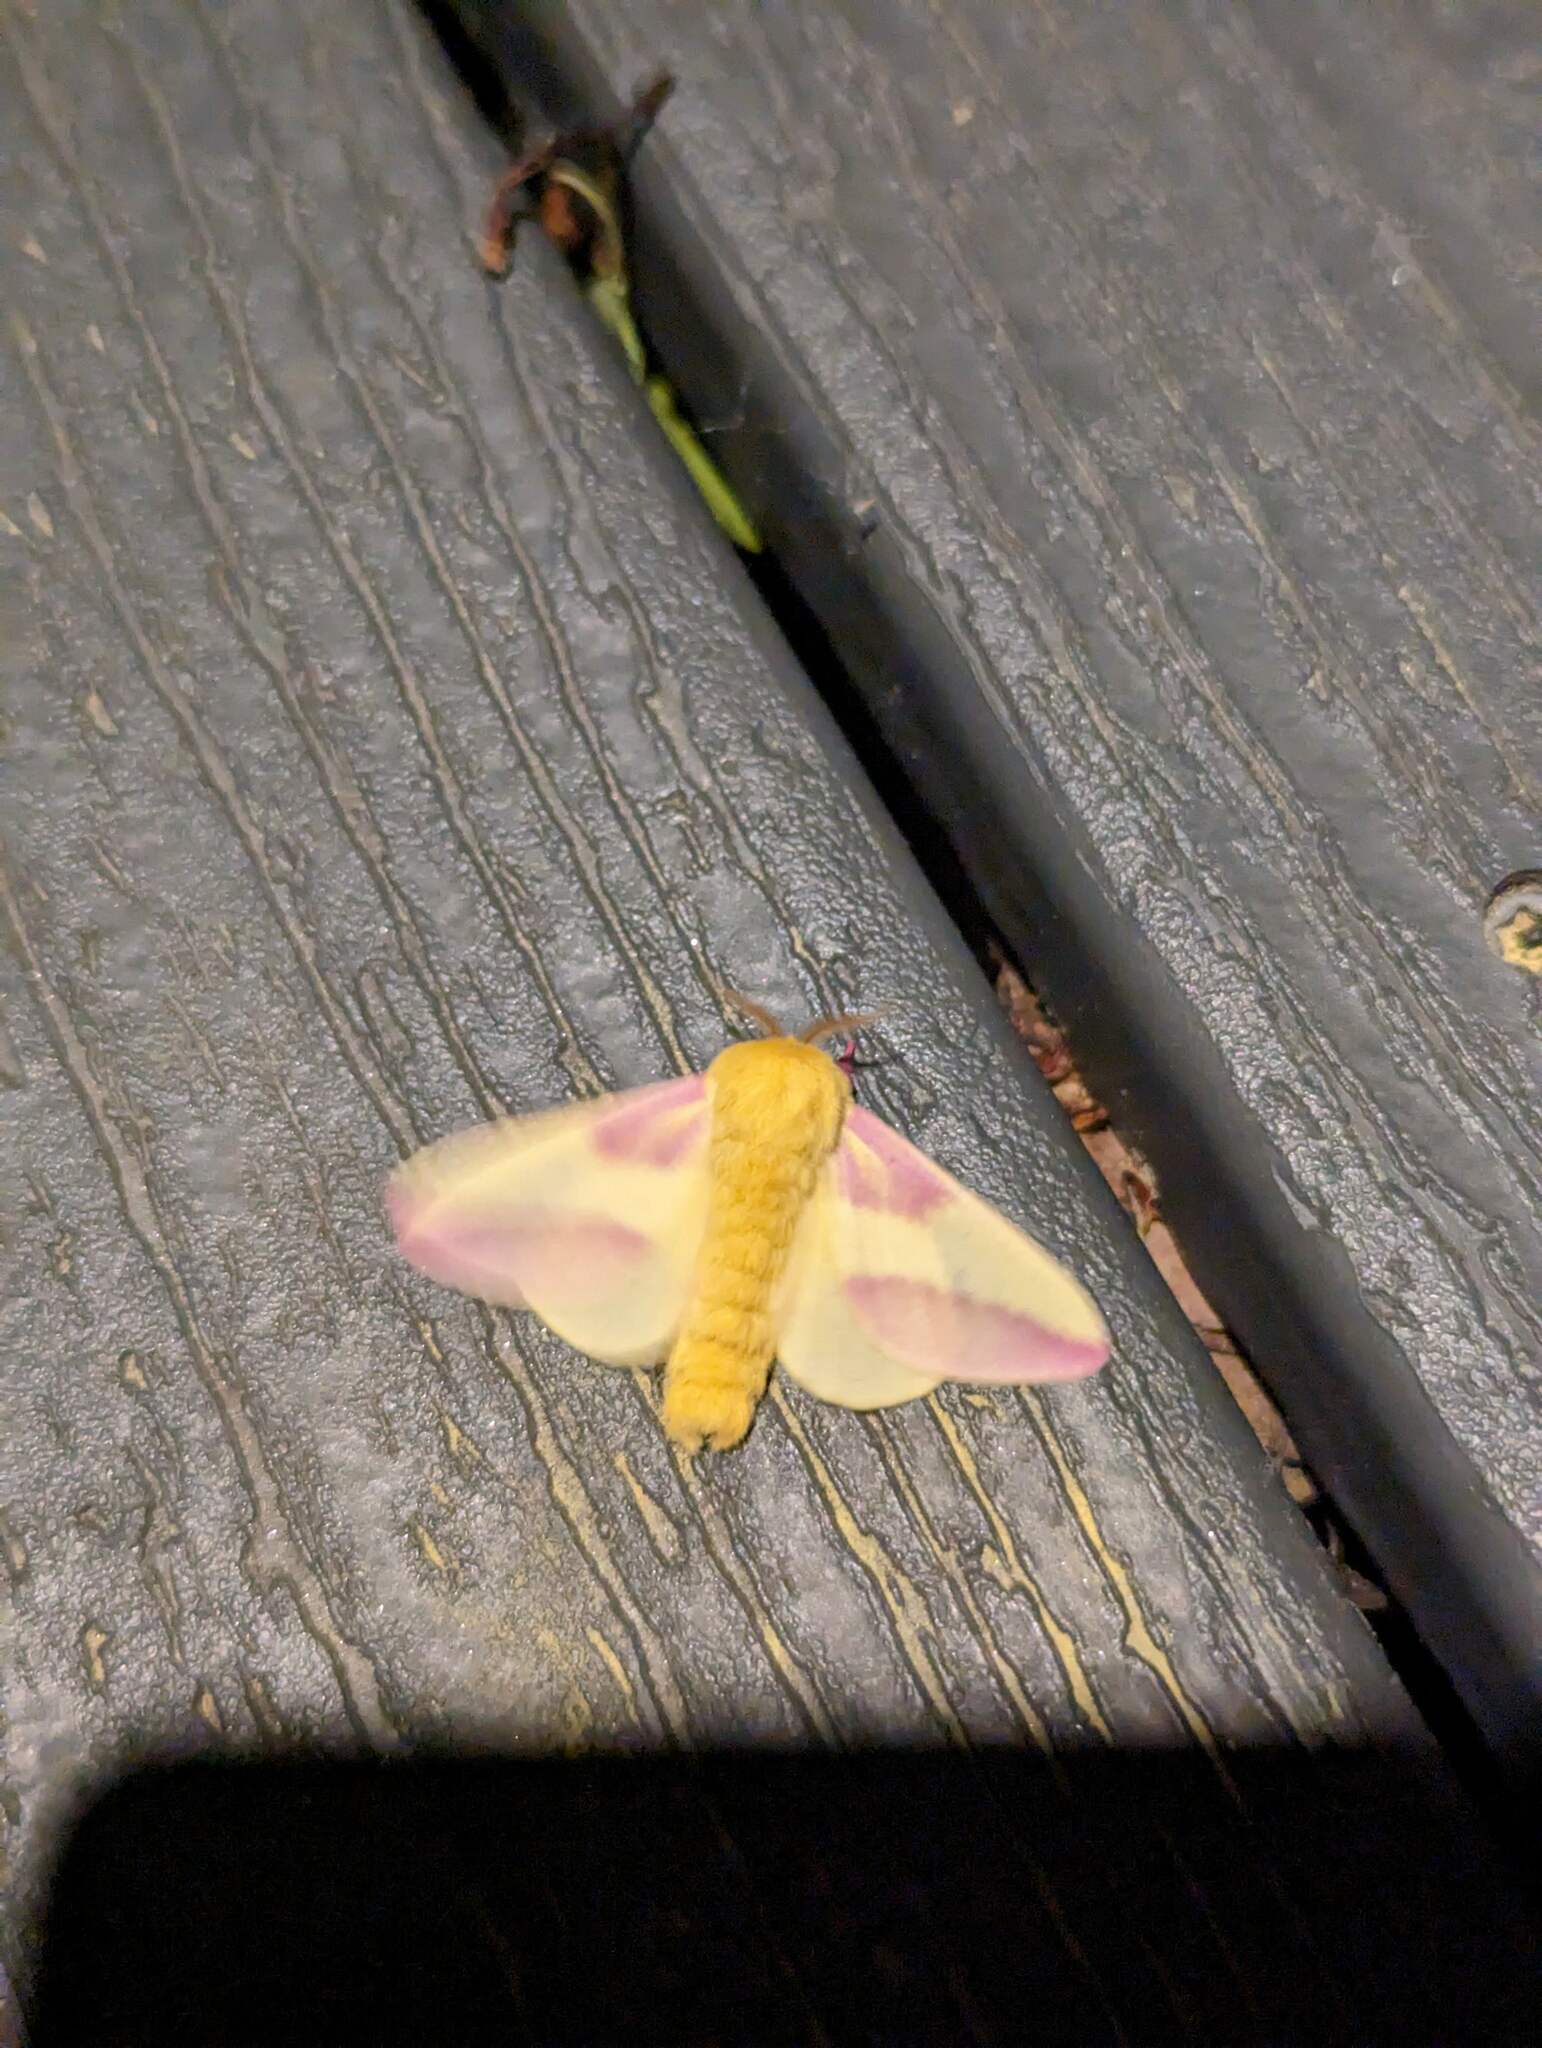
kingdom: Animalia
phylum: Arthropoda
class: Insecta
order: Lepidoptera
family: Saturniidae
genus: Dryocampa
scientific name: Dryocampa rubicunda
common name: Rosy maple moth
